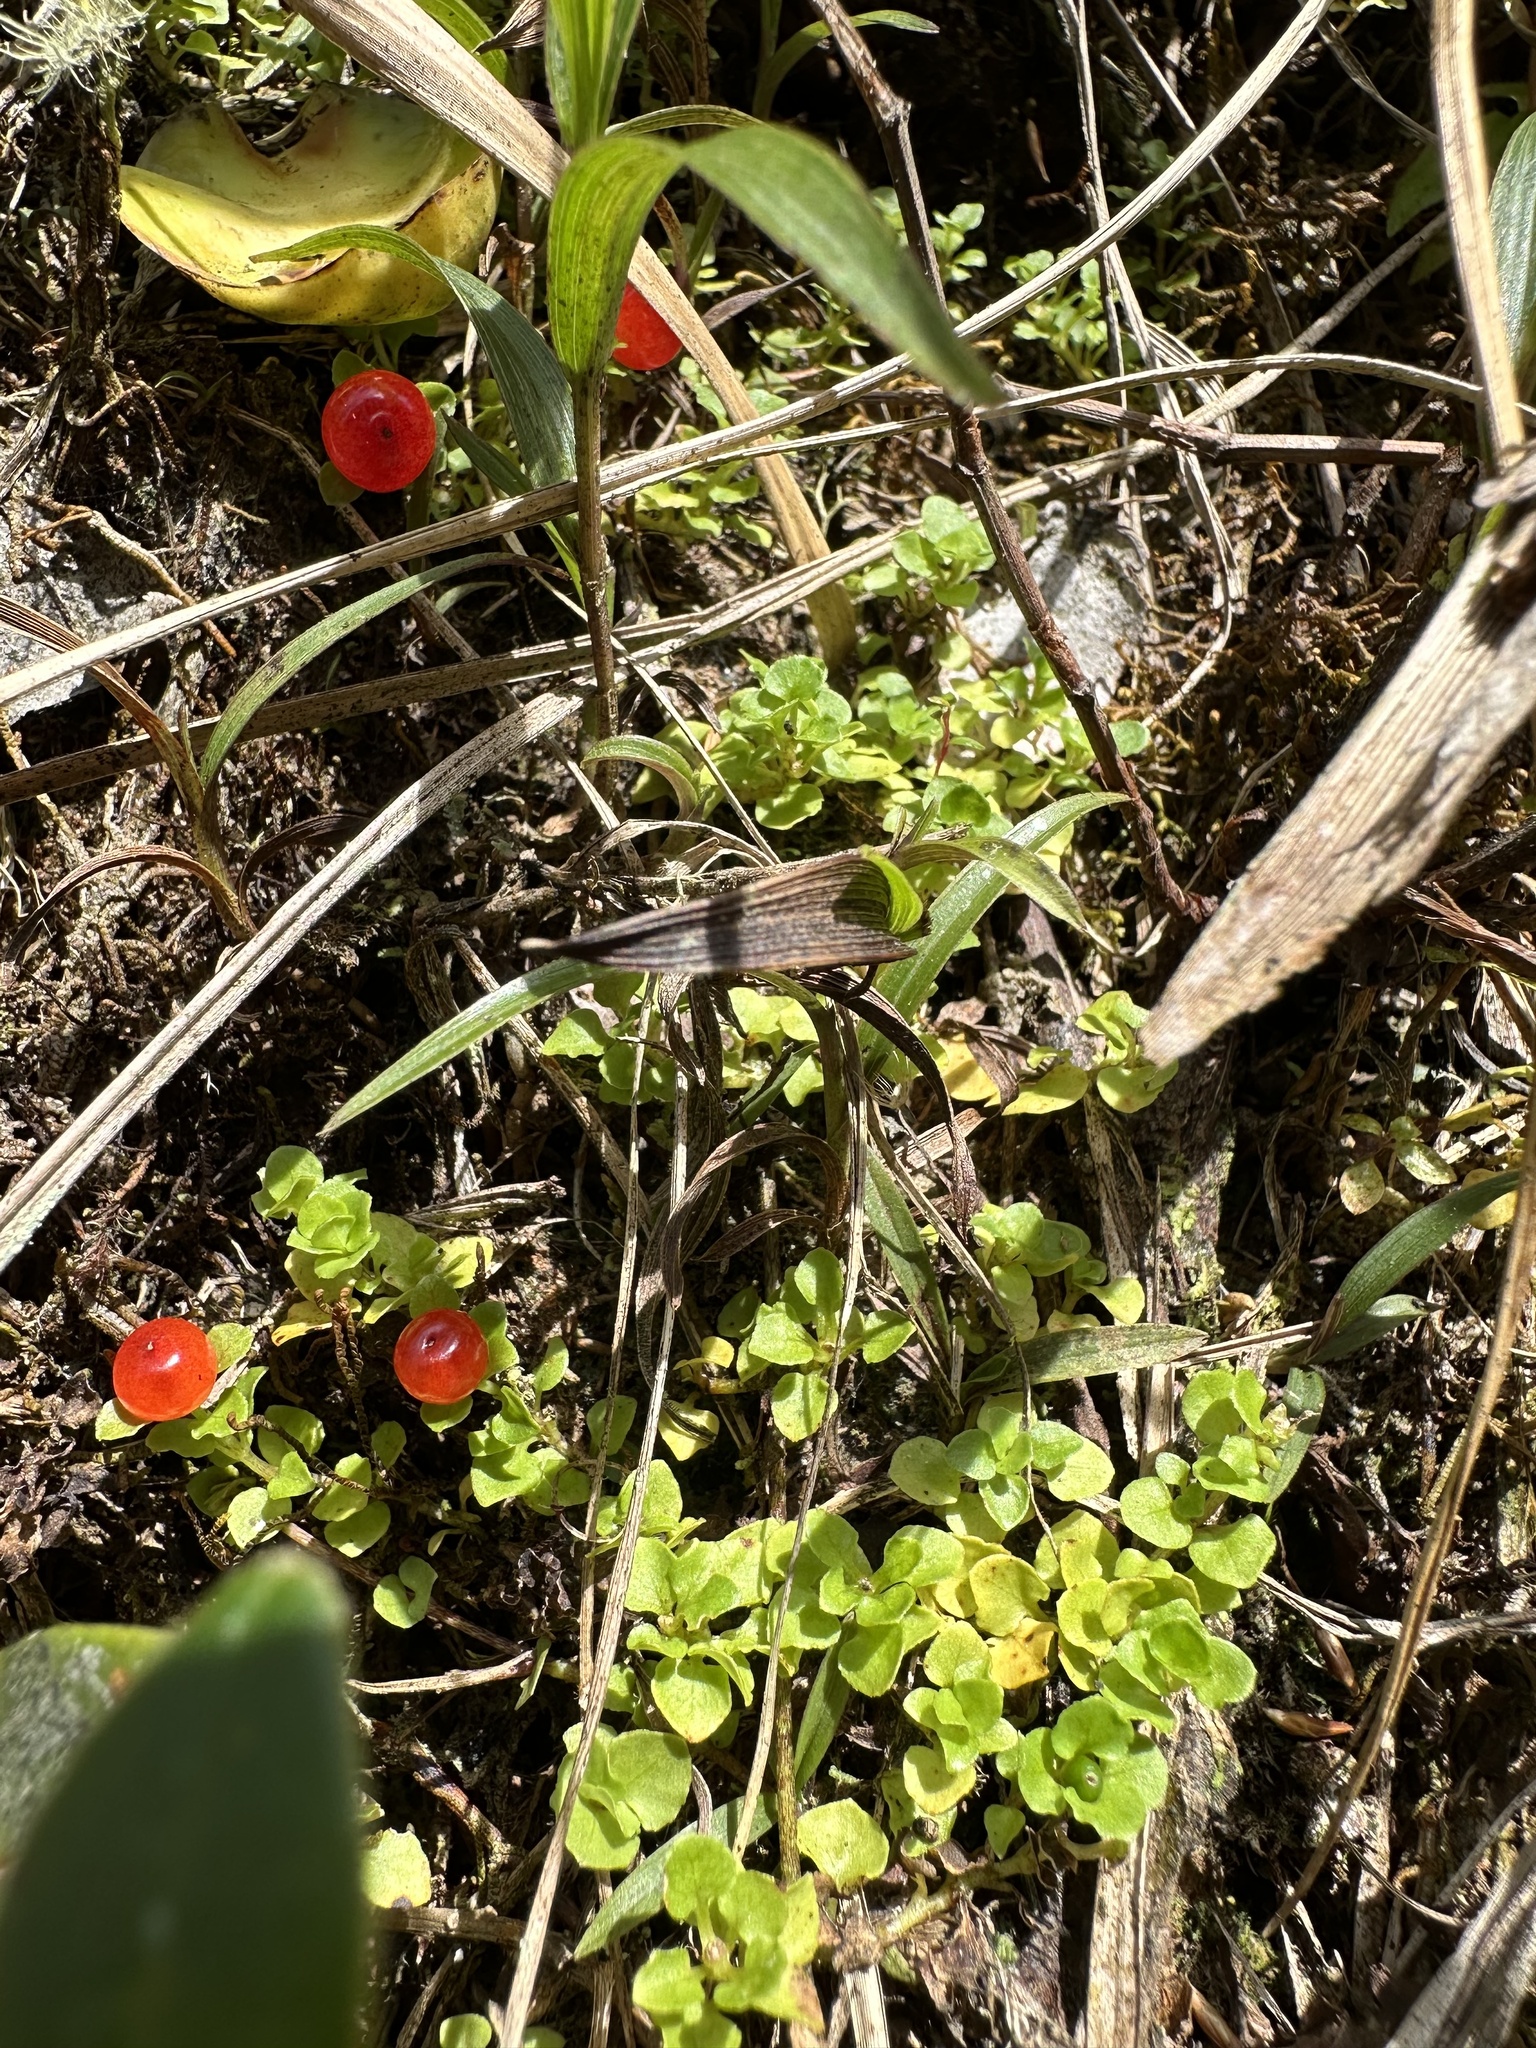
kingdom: Plantae
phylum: Tracheophyta
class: Magnoliopsida
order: Gentianales
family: Rubiaceae
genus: Nertera
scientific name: Nertera granadensis
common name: Beadplant
